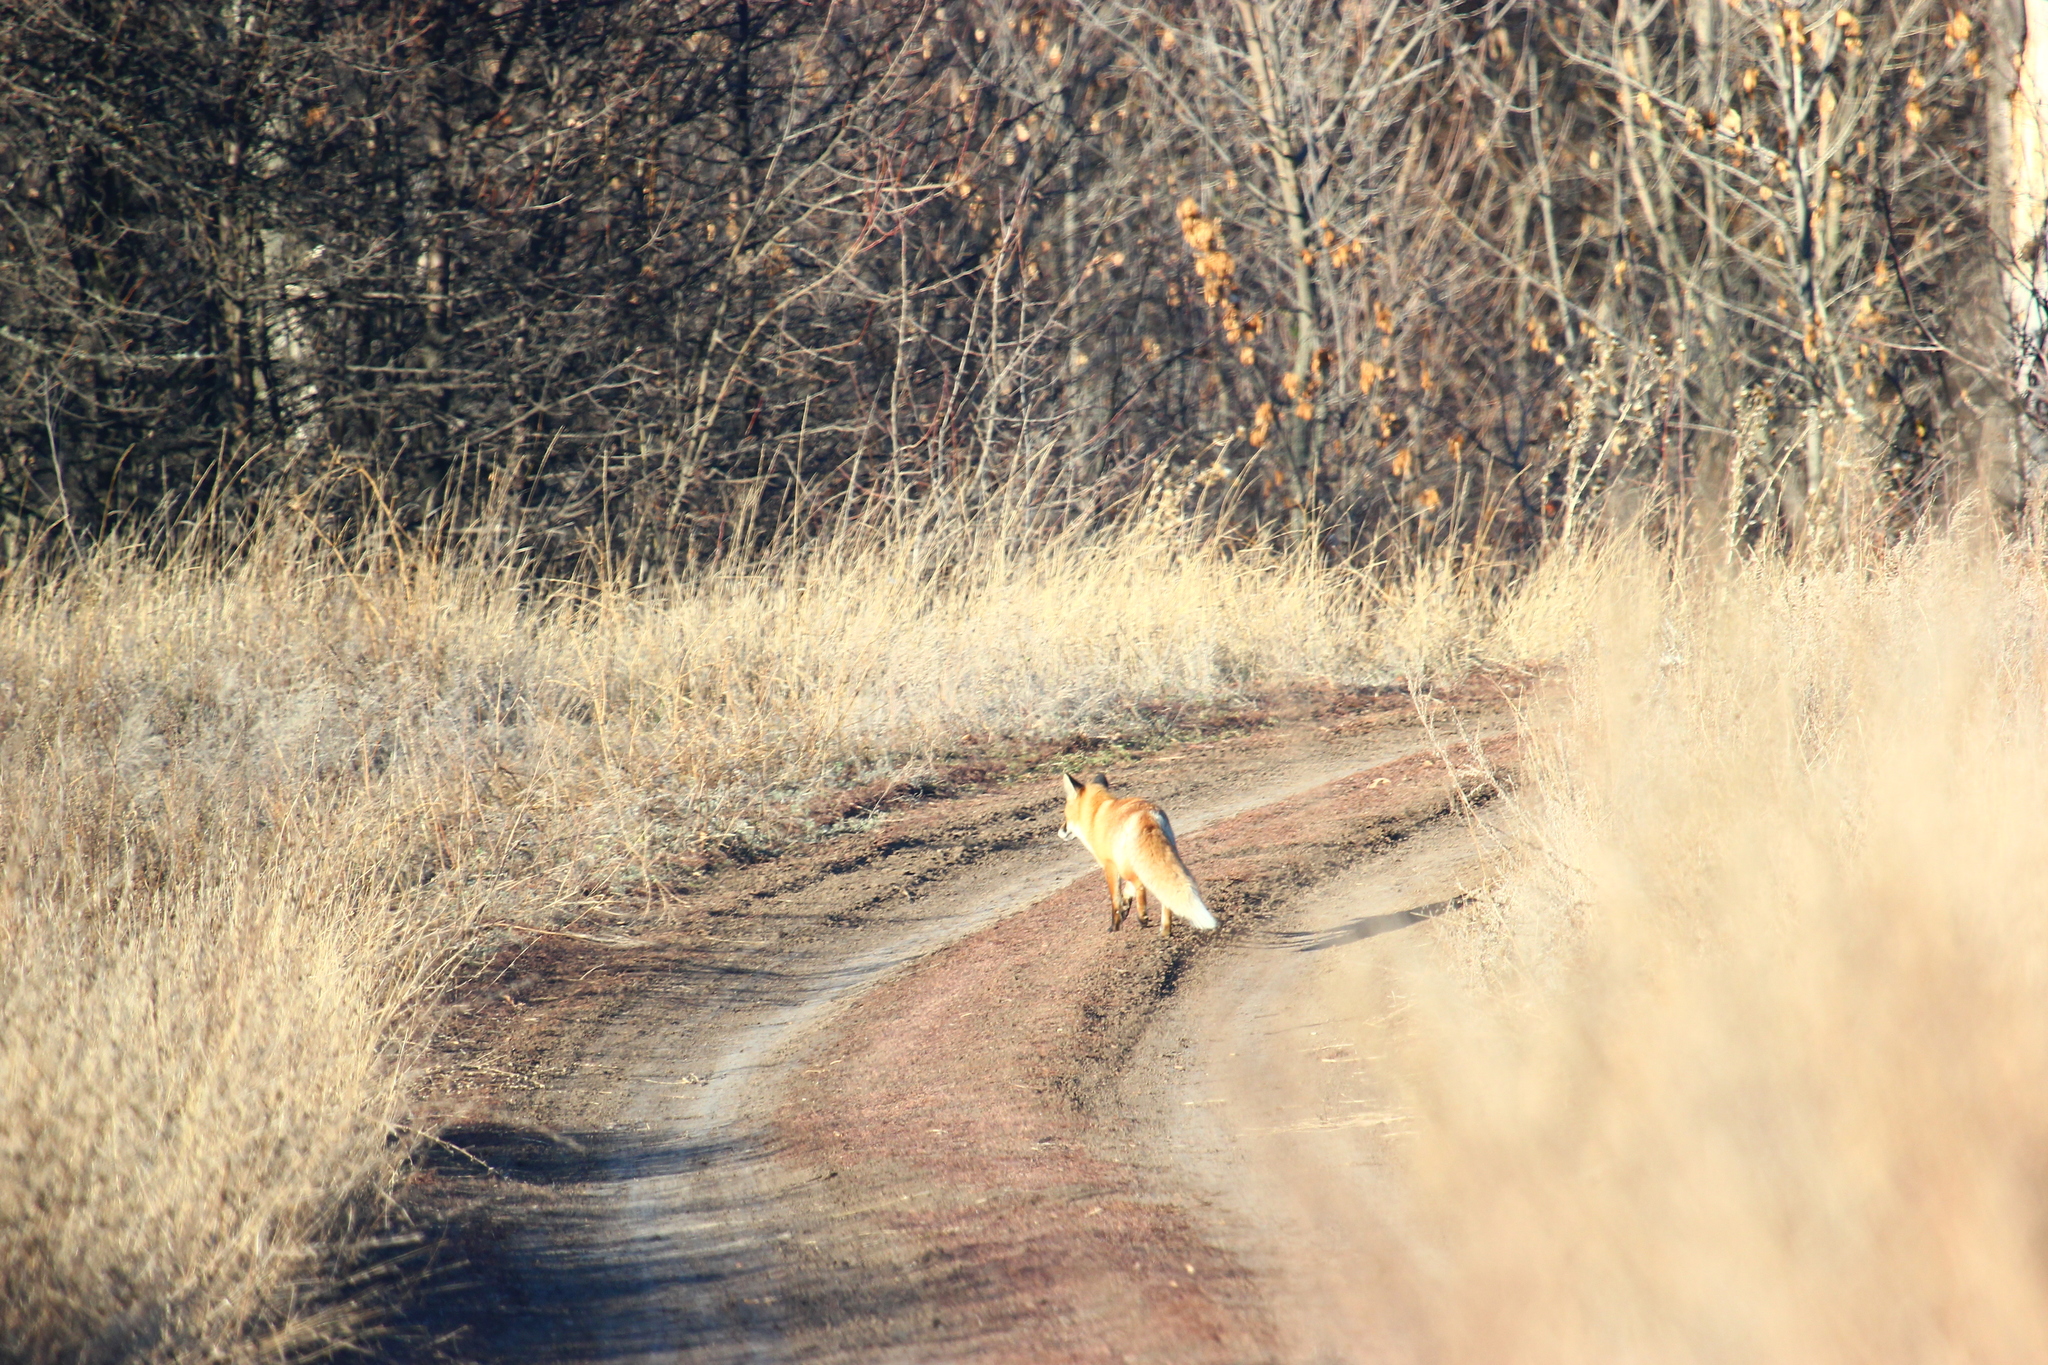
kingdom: Animalia
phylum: Chordata
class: Mammalia
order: Carnivora
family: Canidae
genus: Vulpes
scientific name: Vulpes vulpes
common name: Red fox
